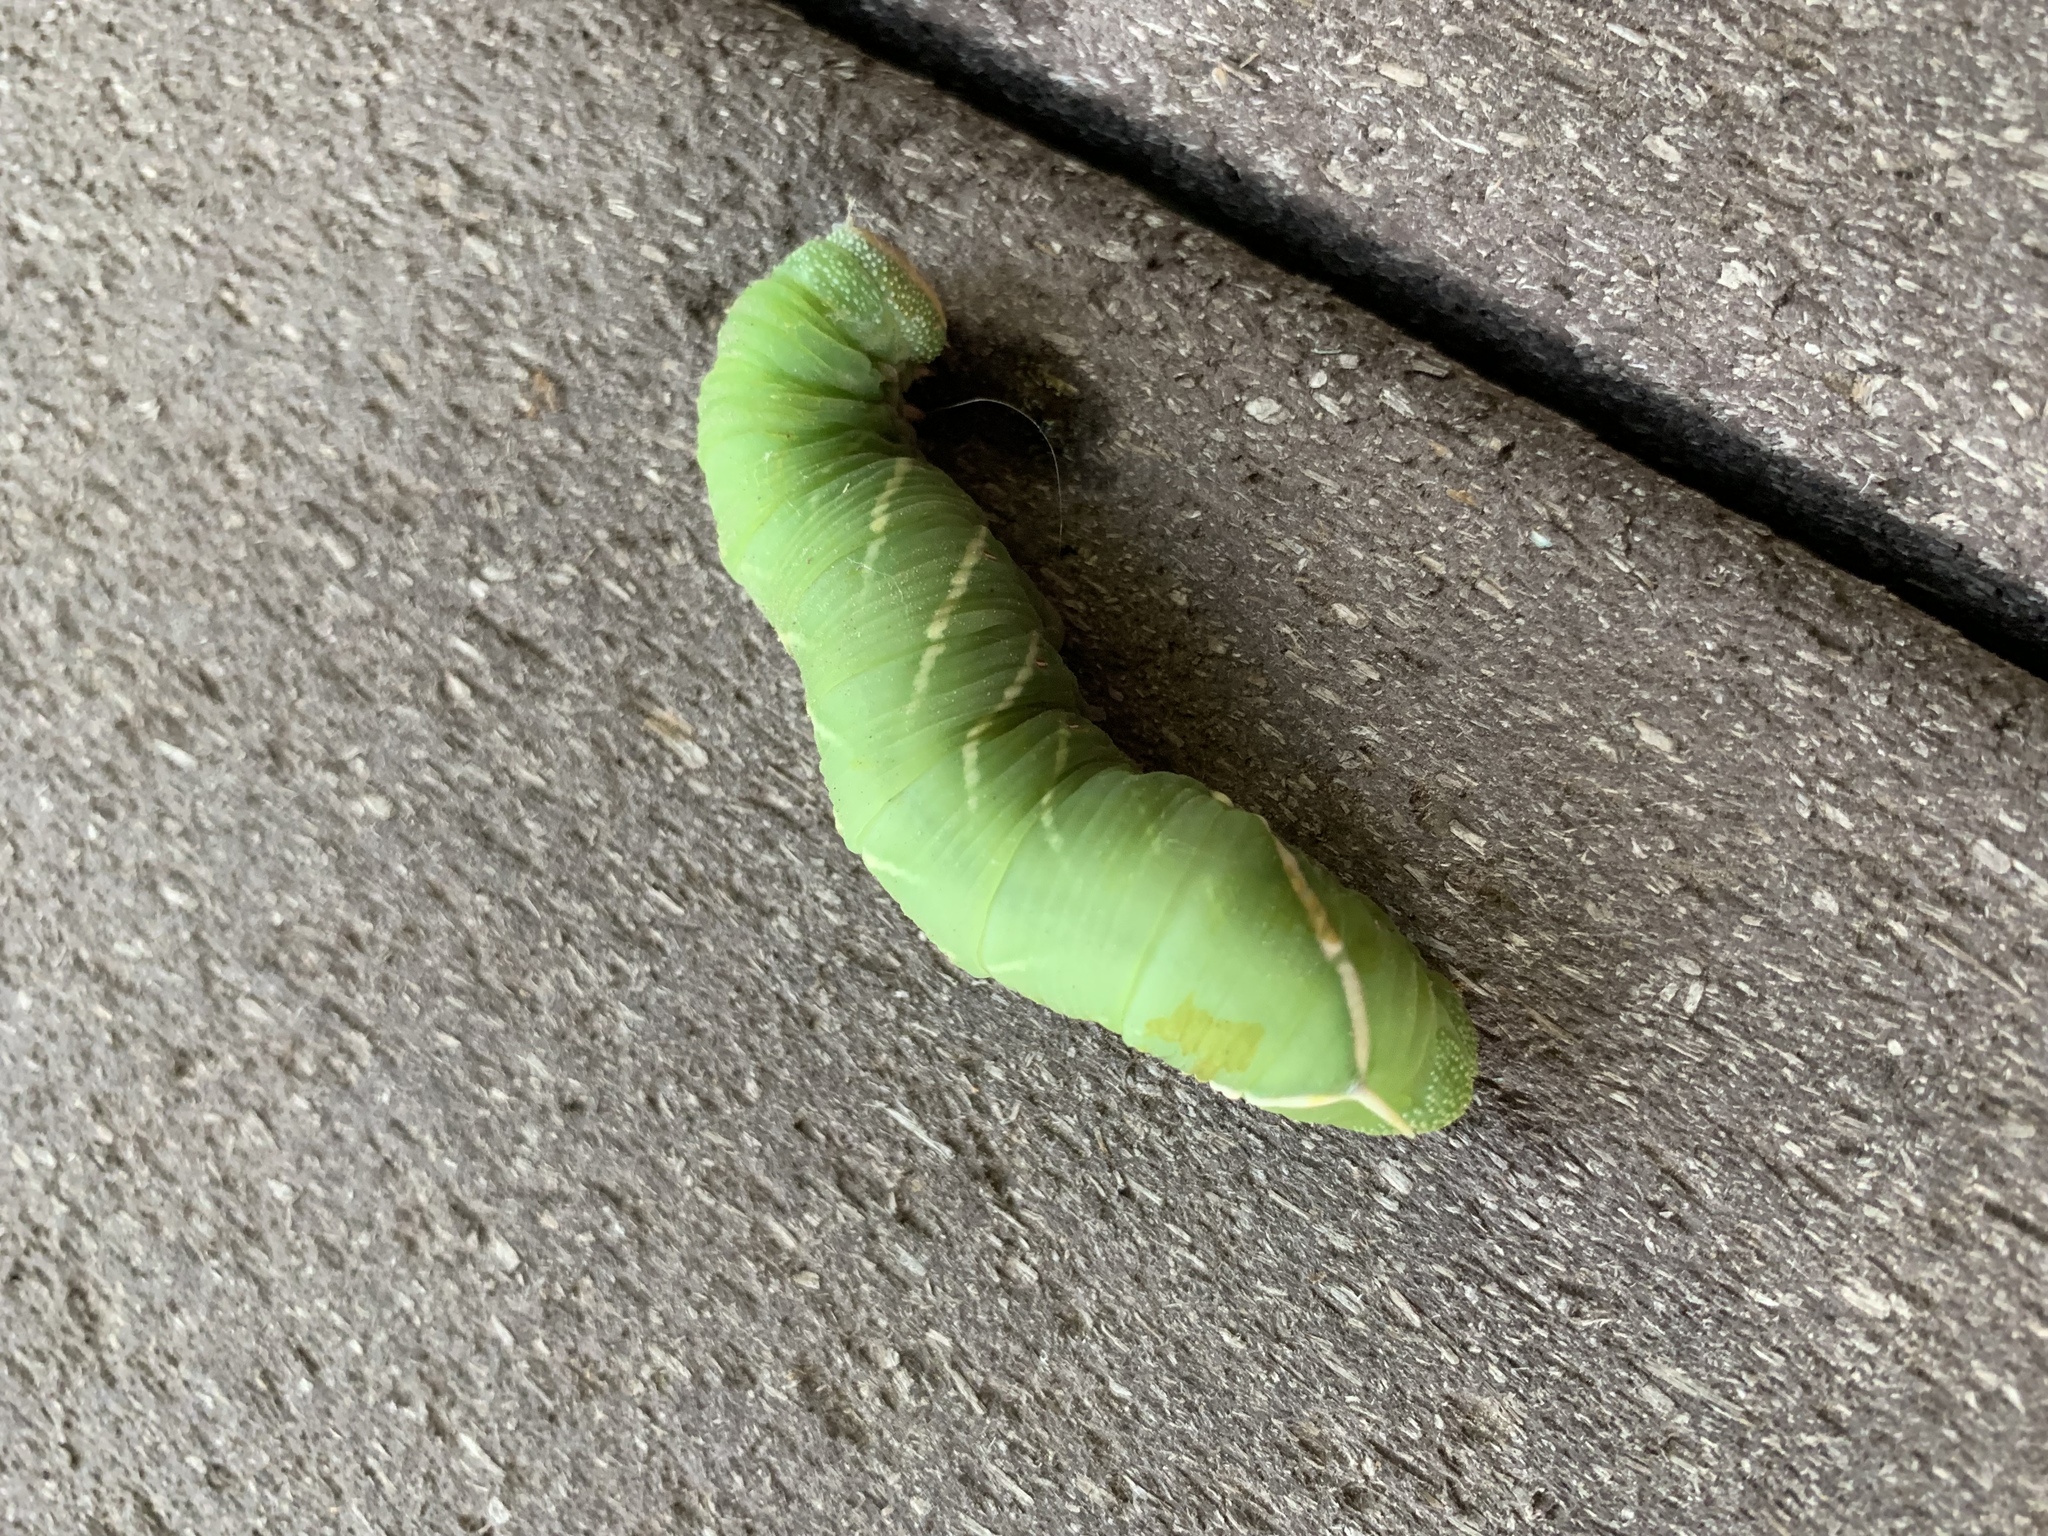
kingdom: Animalia
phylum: Arthropoda
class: Insecta
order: Lepidoptera
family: Sphingidae
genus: Pachysphinx
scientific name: Pachysphinx occidentalis
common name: Western poplar sphinx
